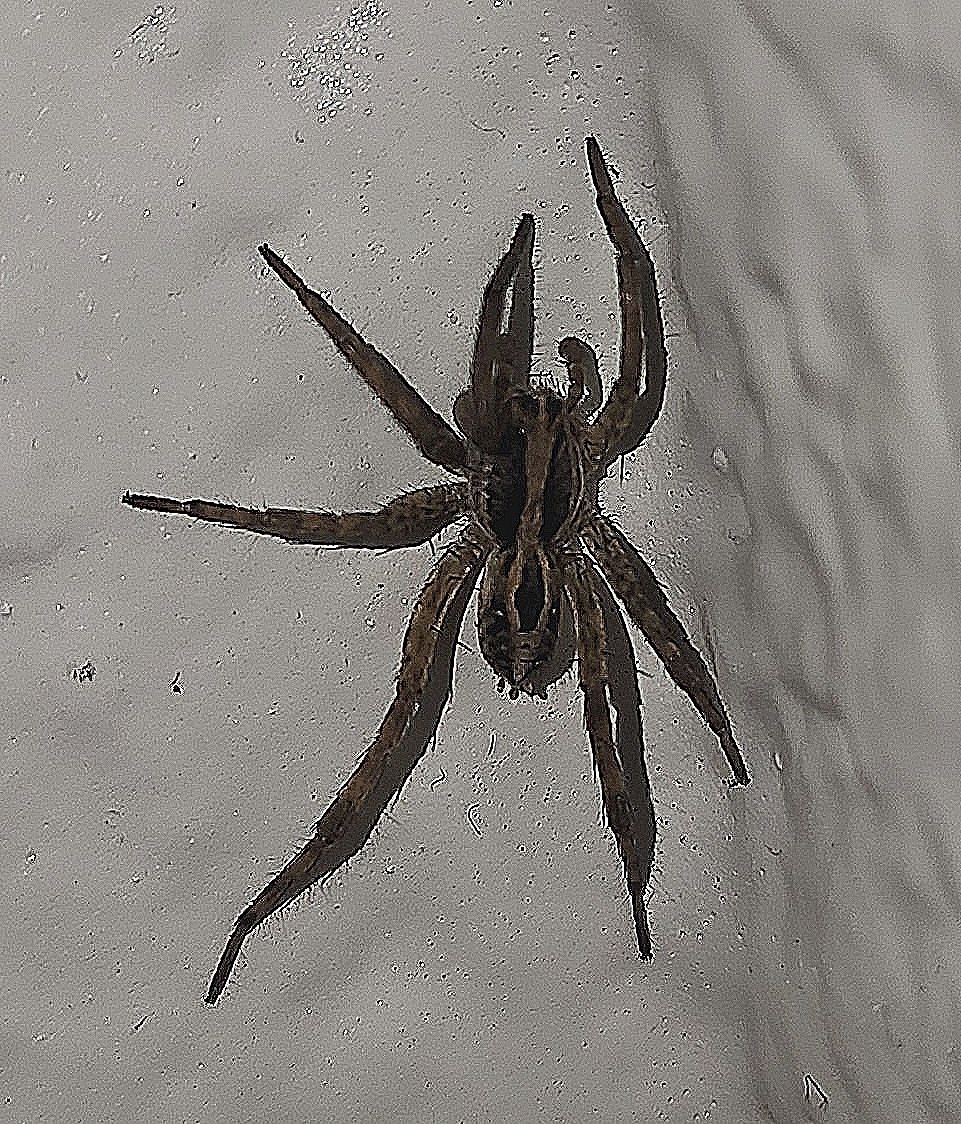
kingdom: Animalia
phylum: Arthropoda
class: Arachnida
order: Araneae
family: Lycosidae
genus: Schizocosa
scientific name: Schizocosa avida
